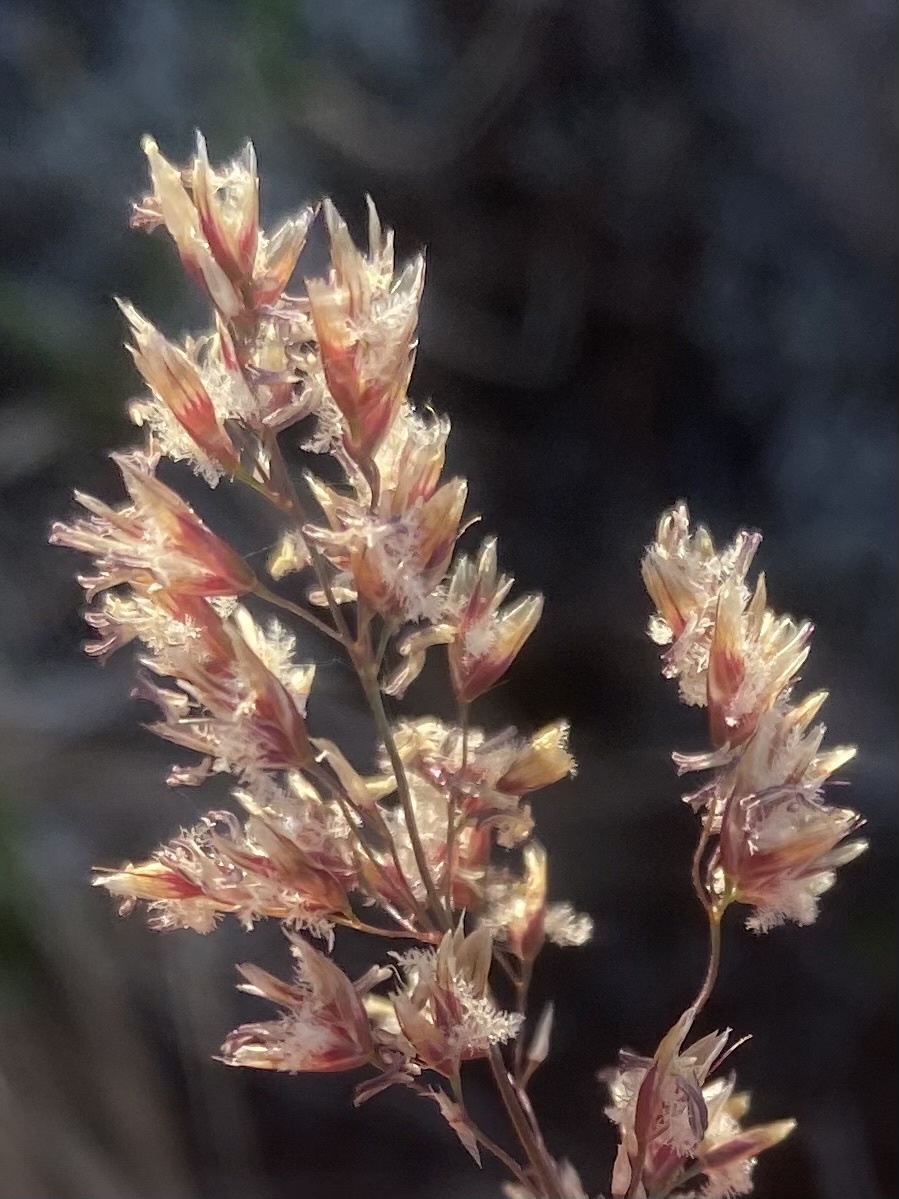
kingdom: Plantae
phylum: Tracheophyta
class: Liliopsida
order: Poales
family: Poaceae
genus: Deschampsia
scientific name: Deschampsia cespitosa
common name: Tufted hair-grass
